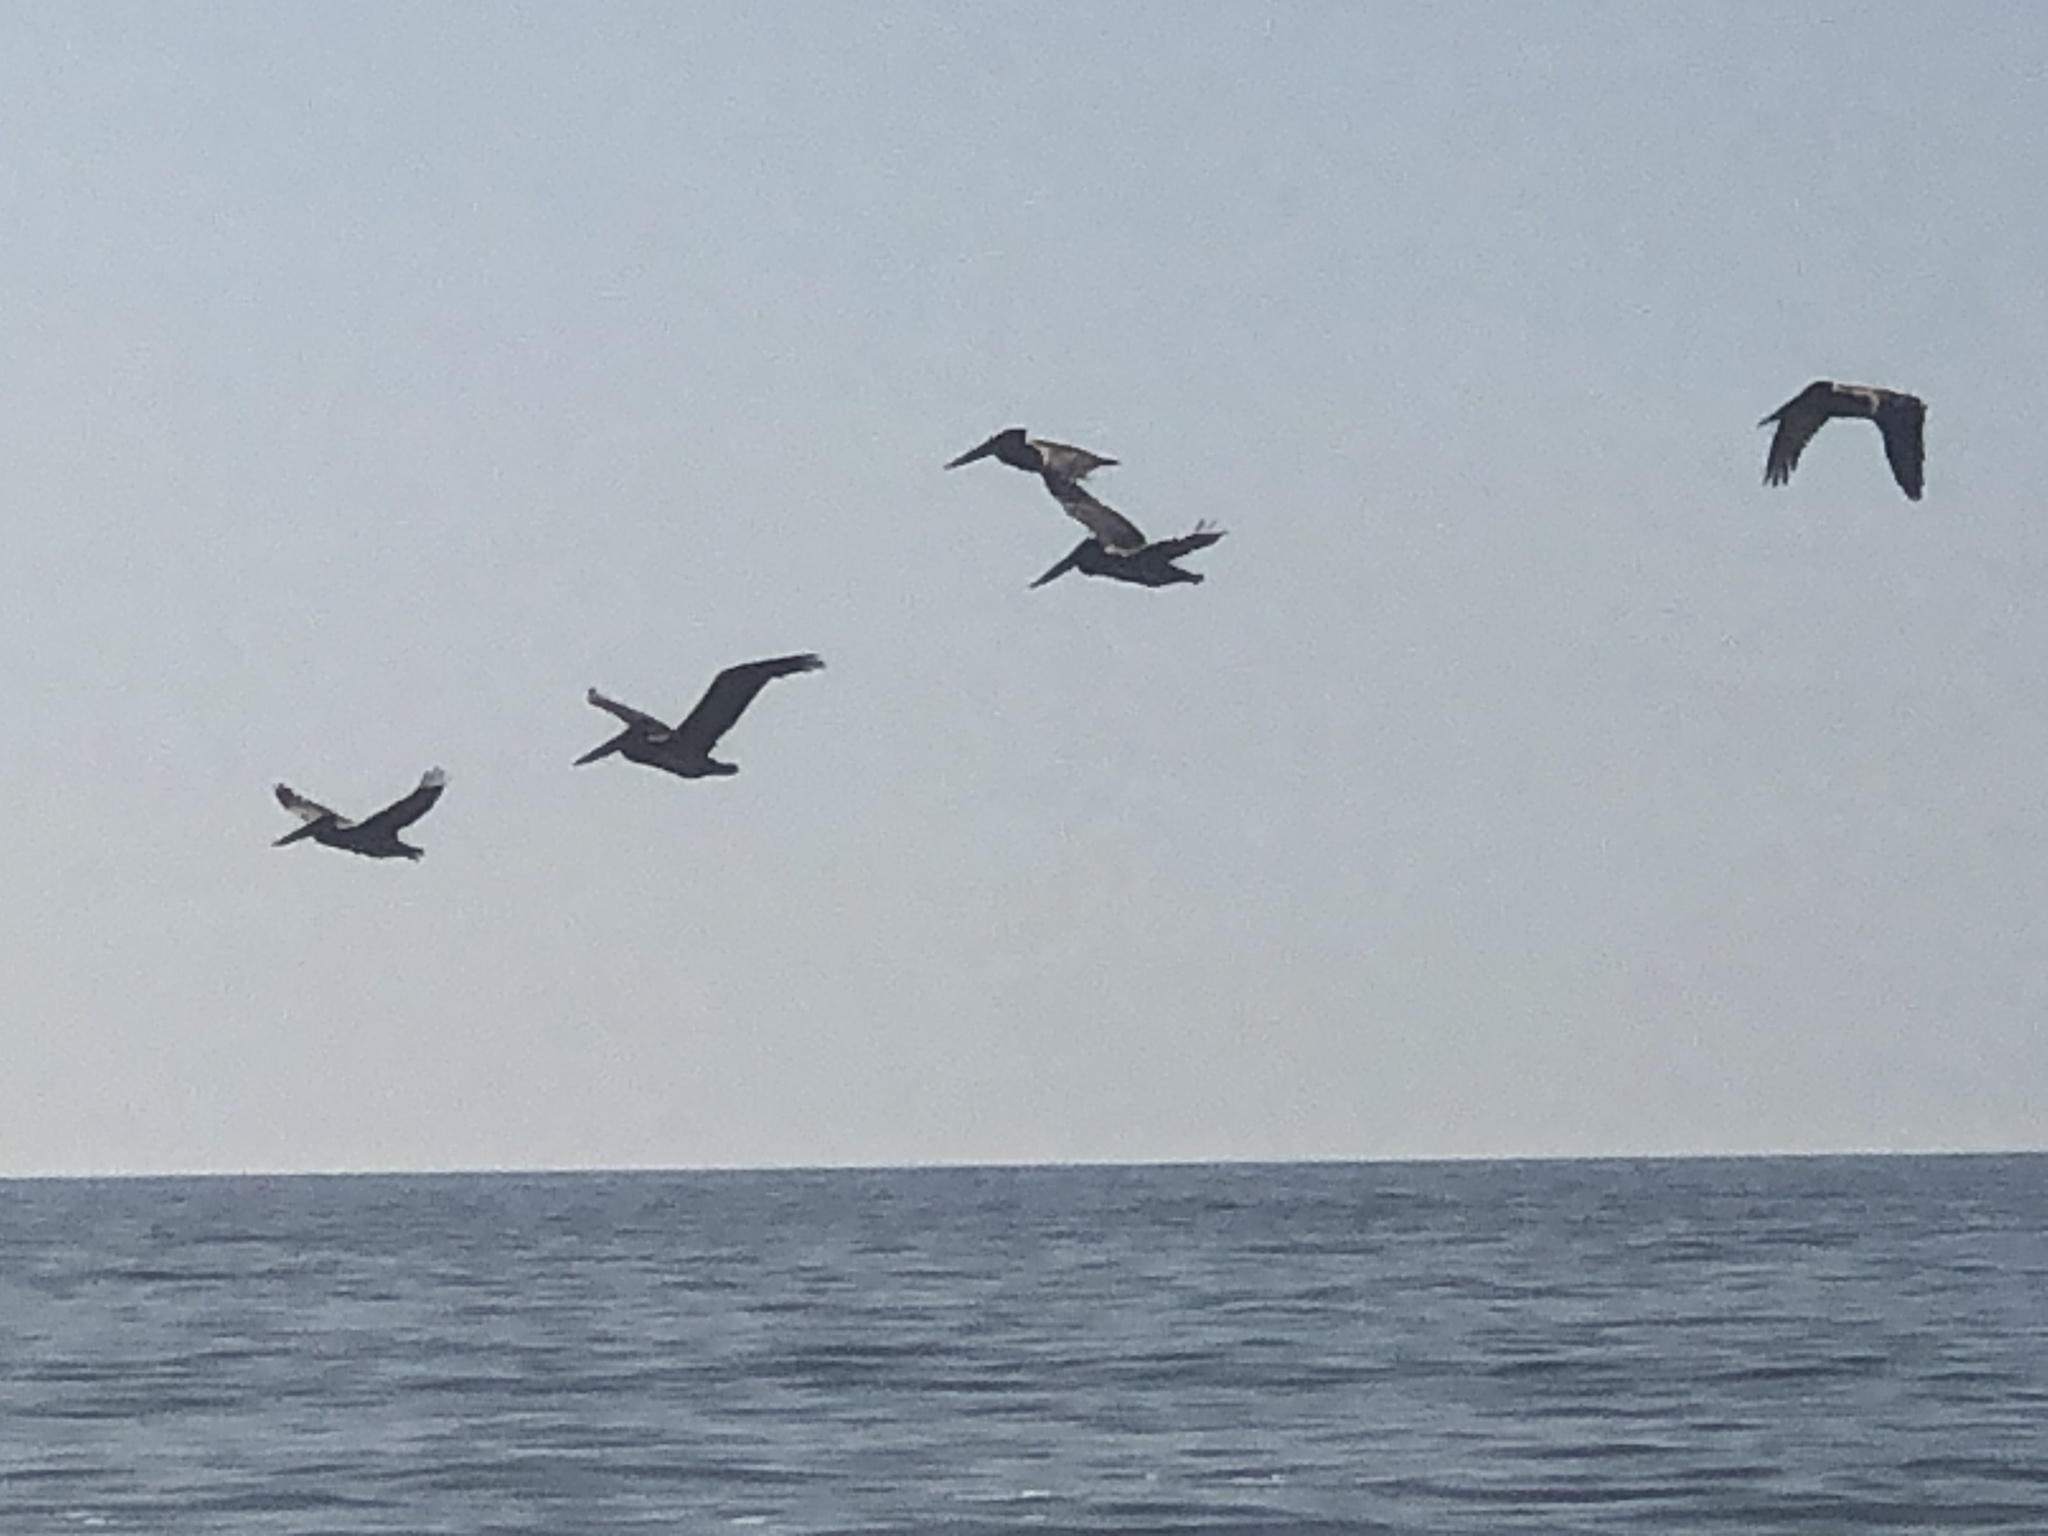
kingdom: Animalia
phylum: Chordata
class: Aves
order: Pelecaniformes
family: Pelecanidae
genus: Pelecanus
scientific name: Pelecanus occidentalis
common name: Brown pelican
